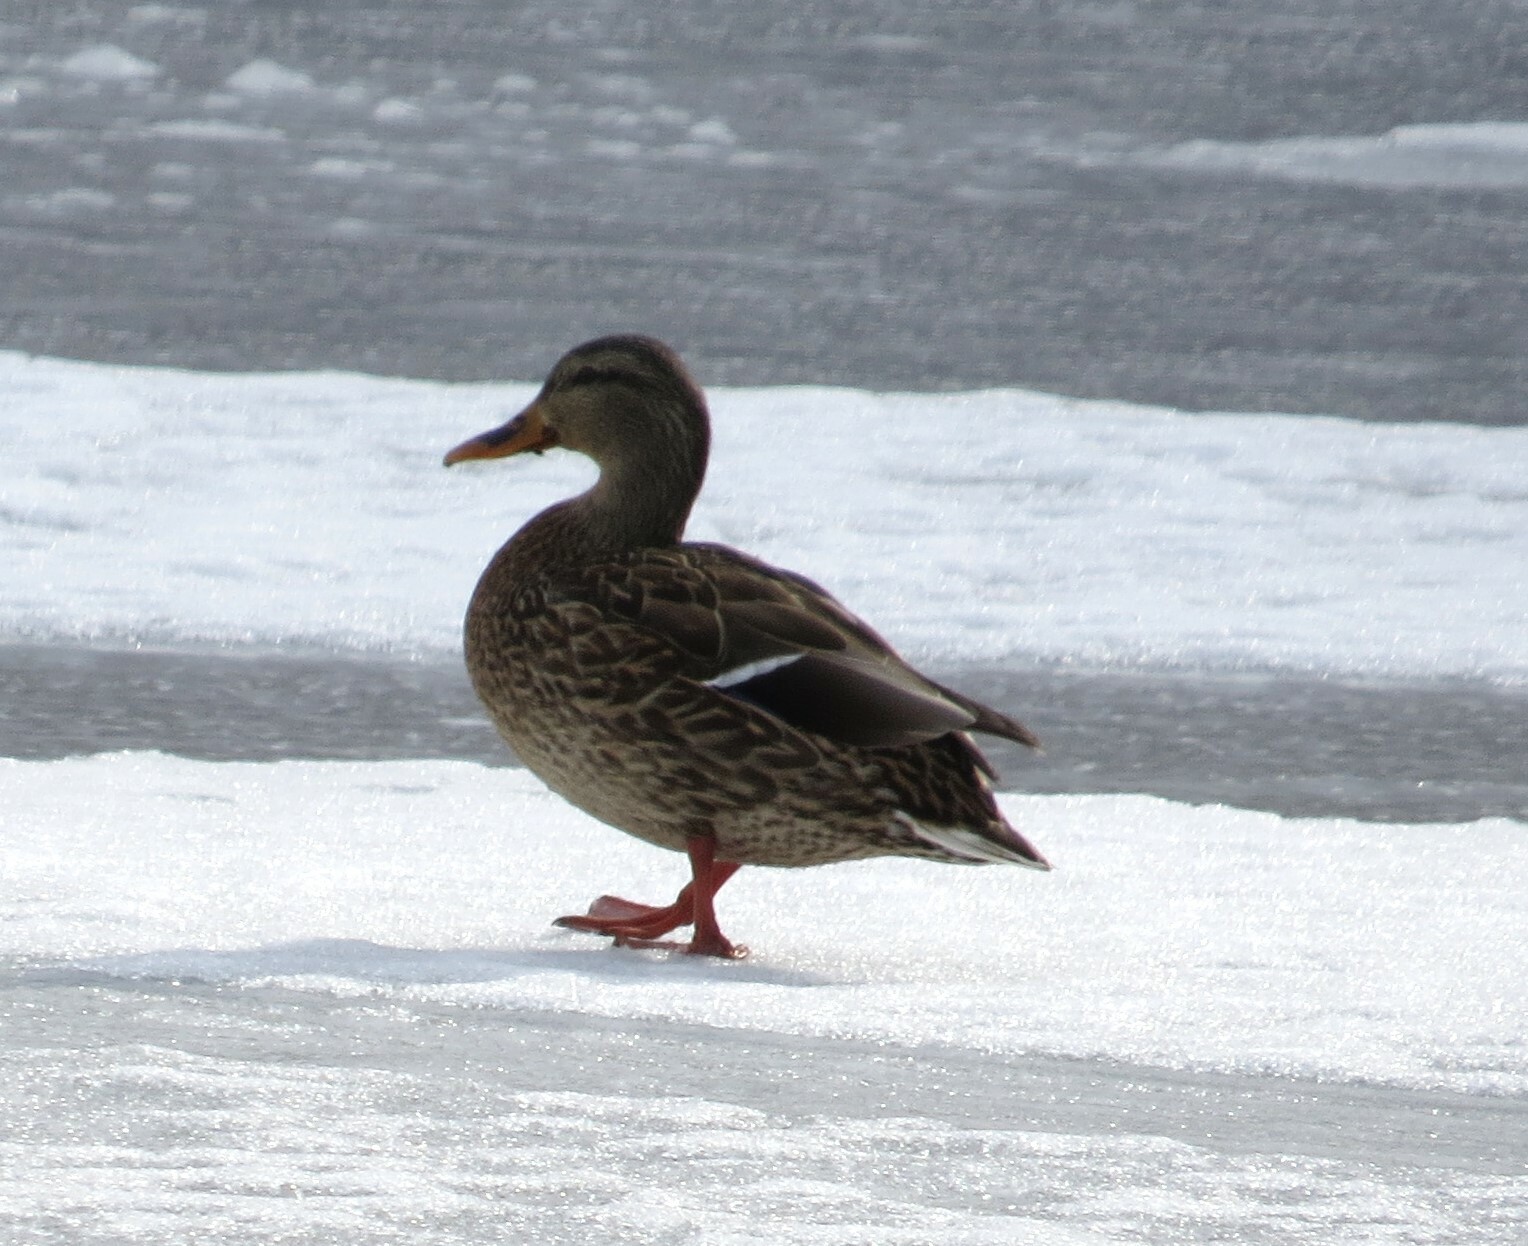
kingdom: Animalia
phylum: Chordata
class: Aves
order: Anseriformes
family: Anatidae
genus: Anas
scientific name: Anas platyrhynchos
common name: Mallard
